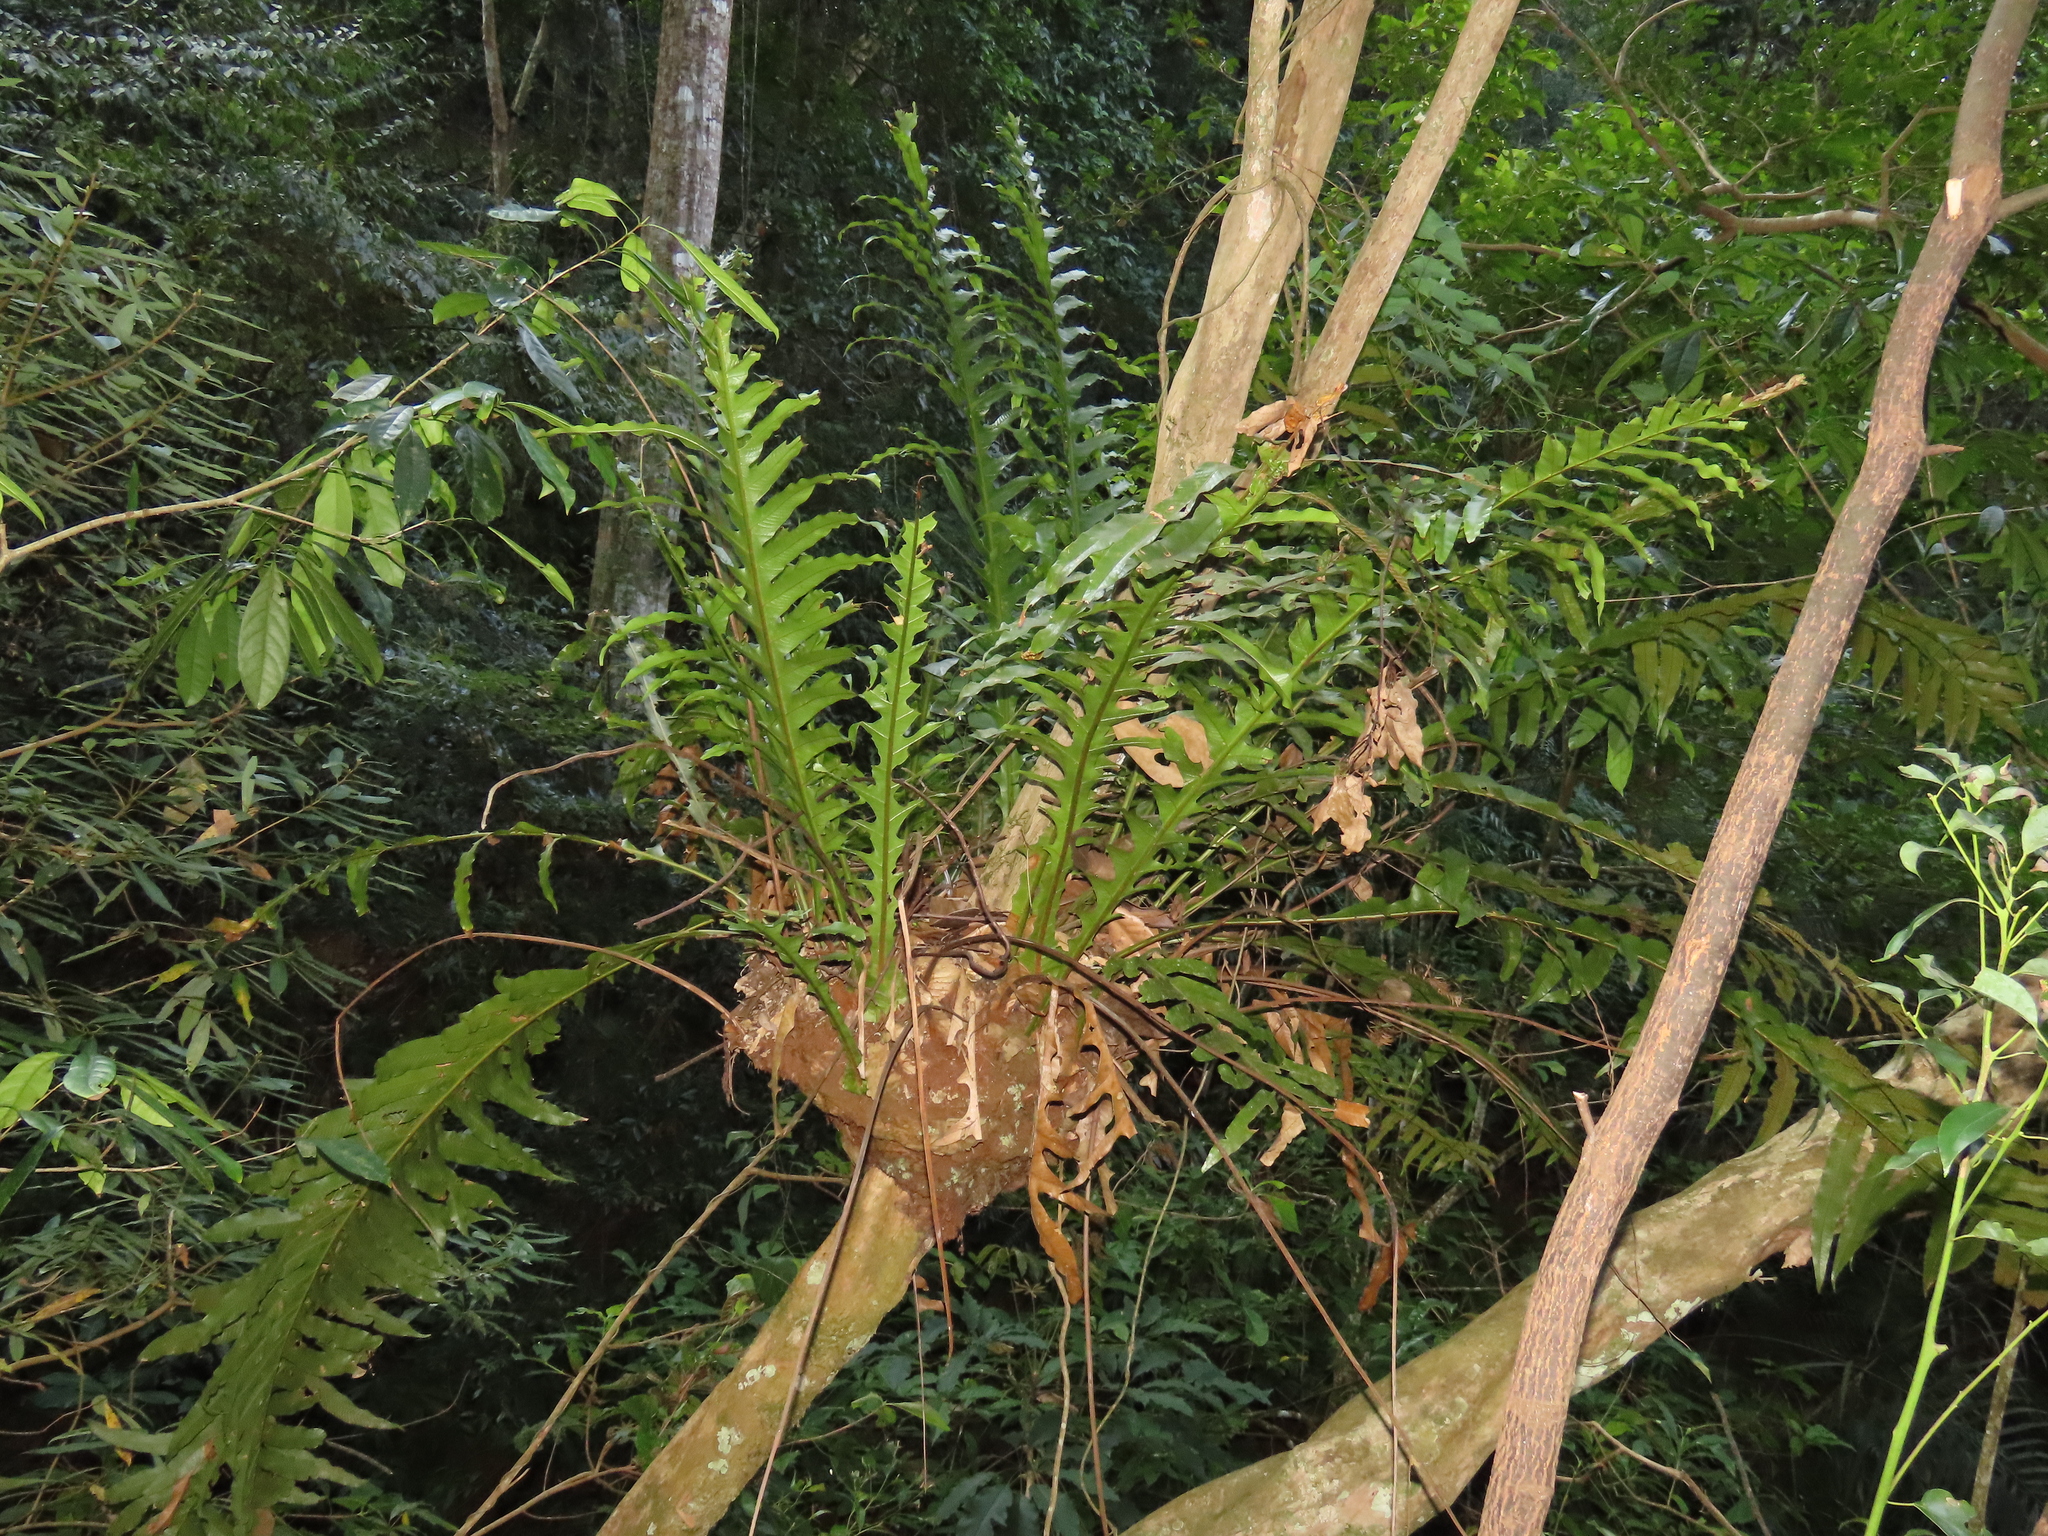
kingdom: Plantae
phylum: Tracheophyta
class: Polypodiopsida
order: Polypodiales
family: Polypodiaceae
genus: Drynaria
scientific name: Drynaria coronans
